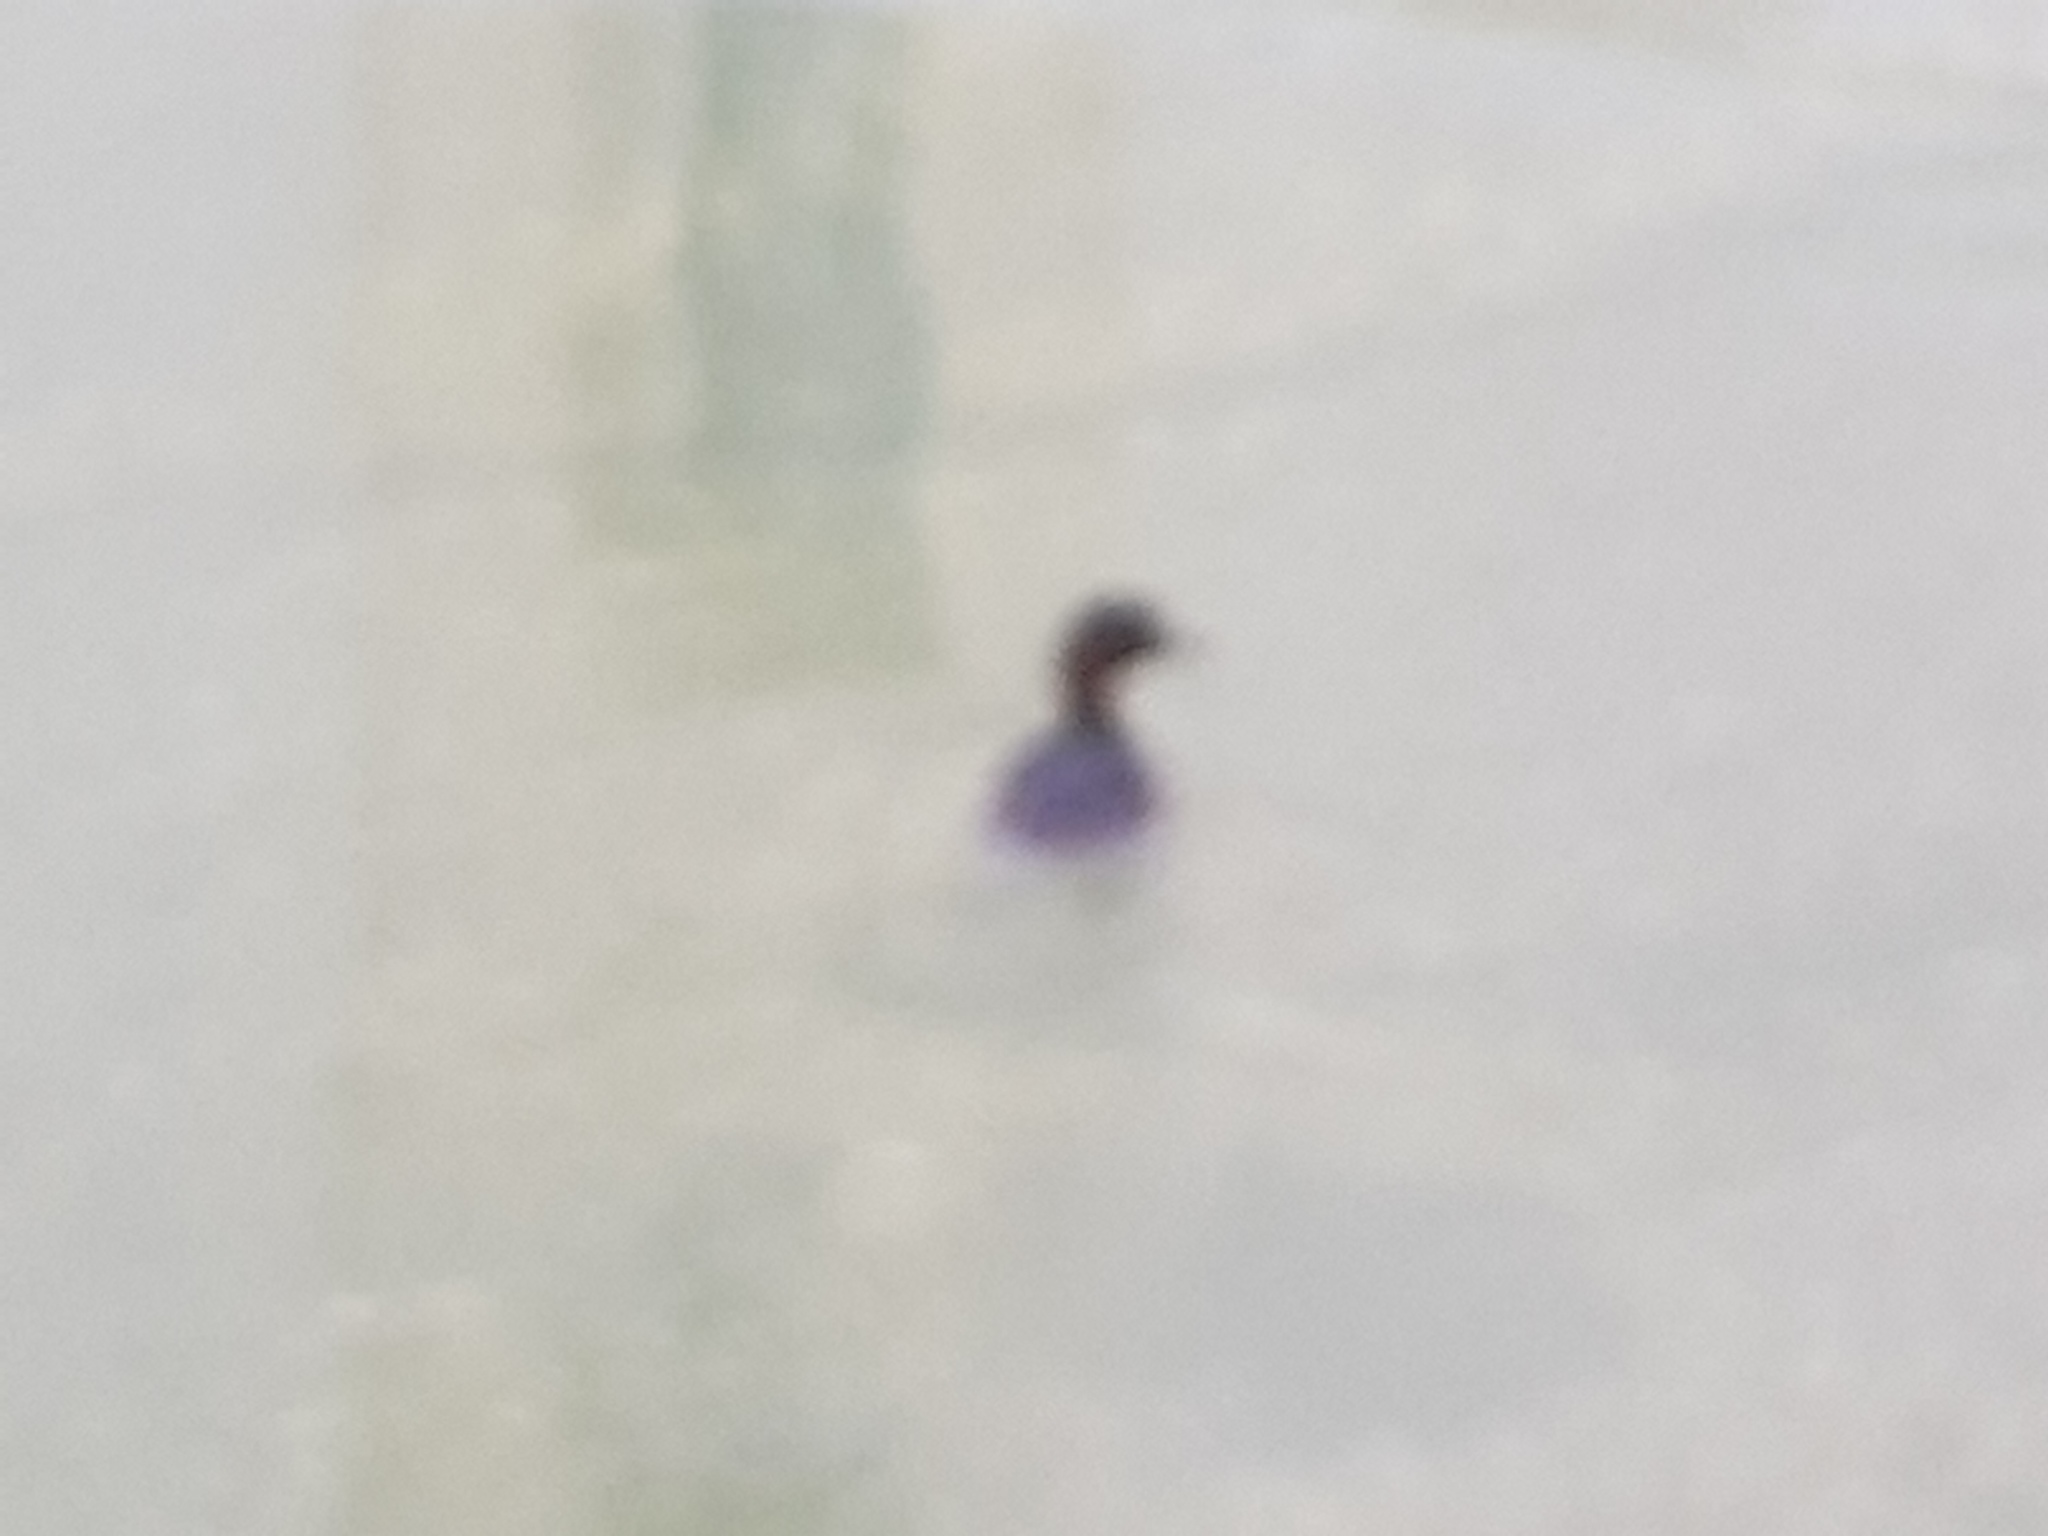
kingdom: Animalia
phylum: Chordata
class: Aves
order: Podicipediformes
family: Podicipedidae
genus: Tachybaptus
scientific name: Tachybaptus ruficollis
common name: Little grebe
